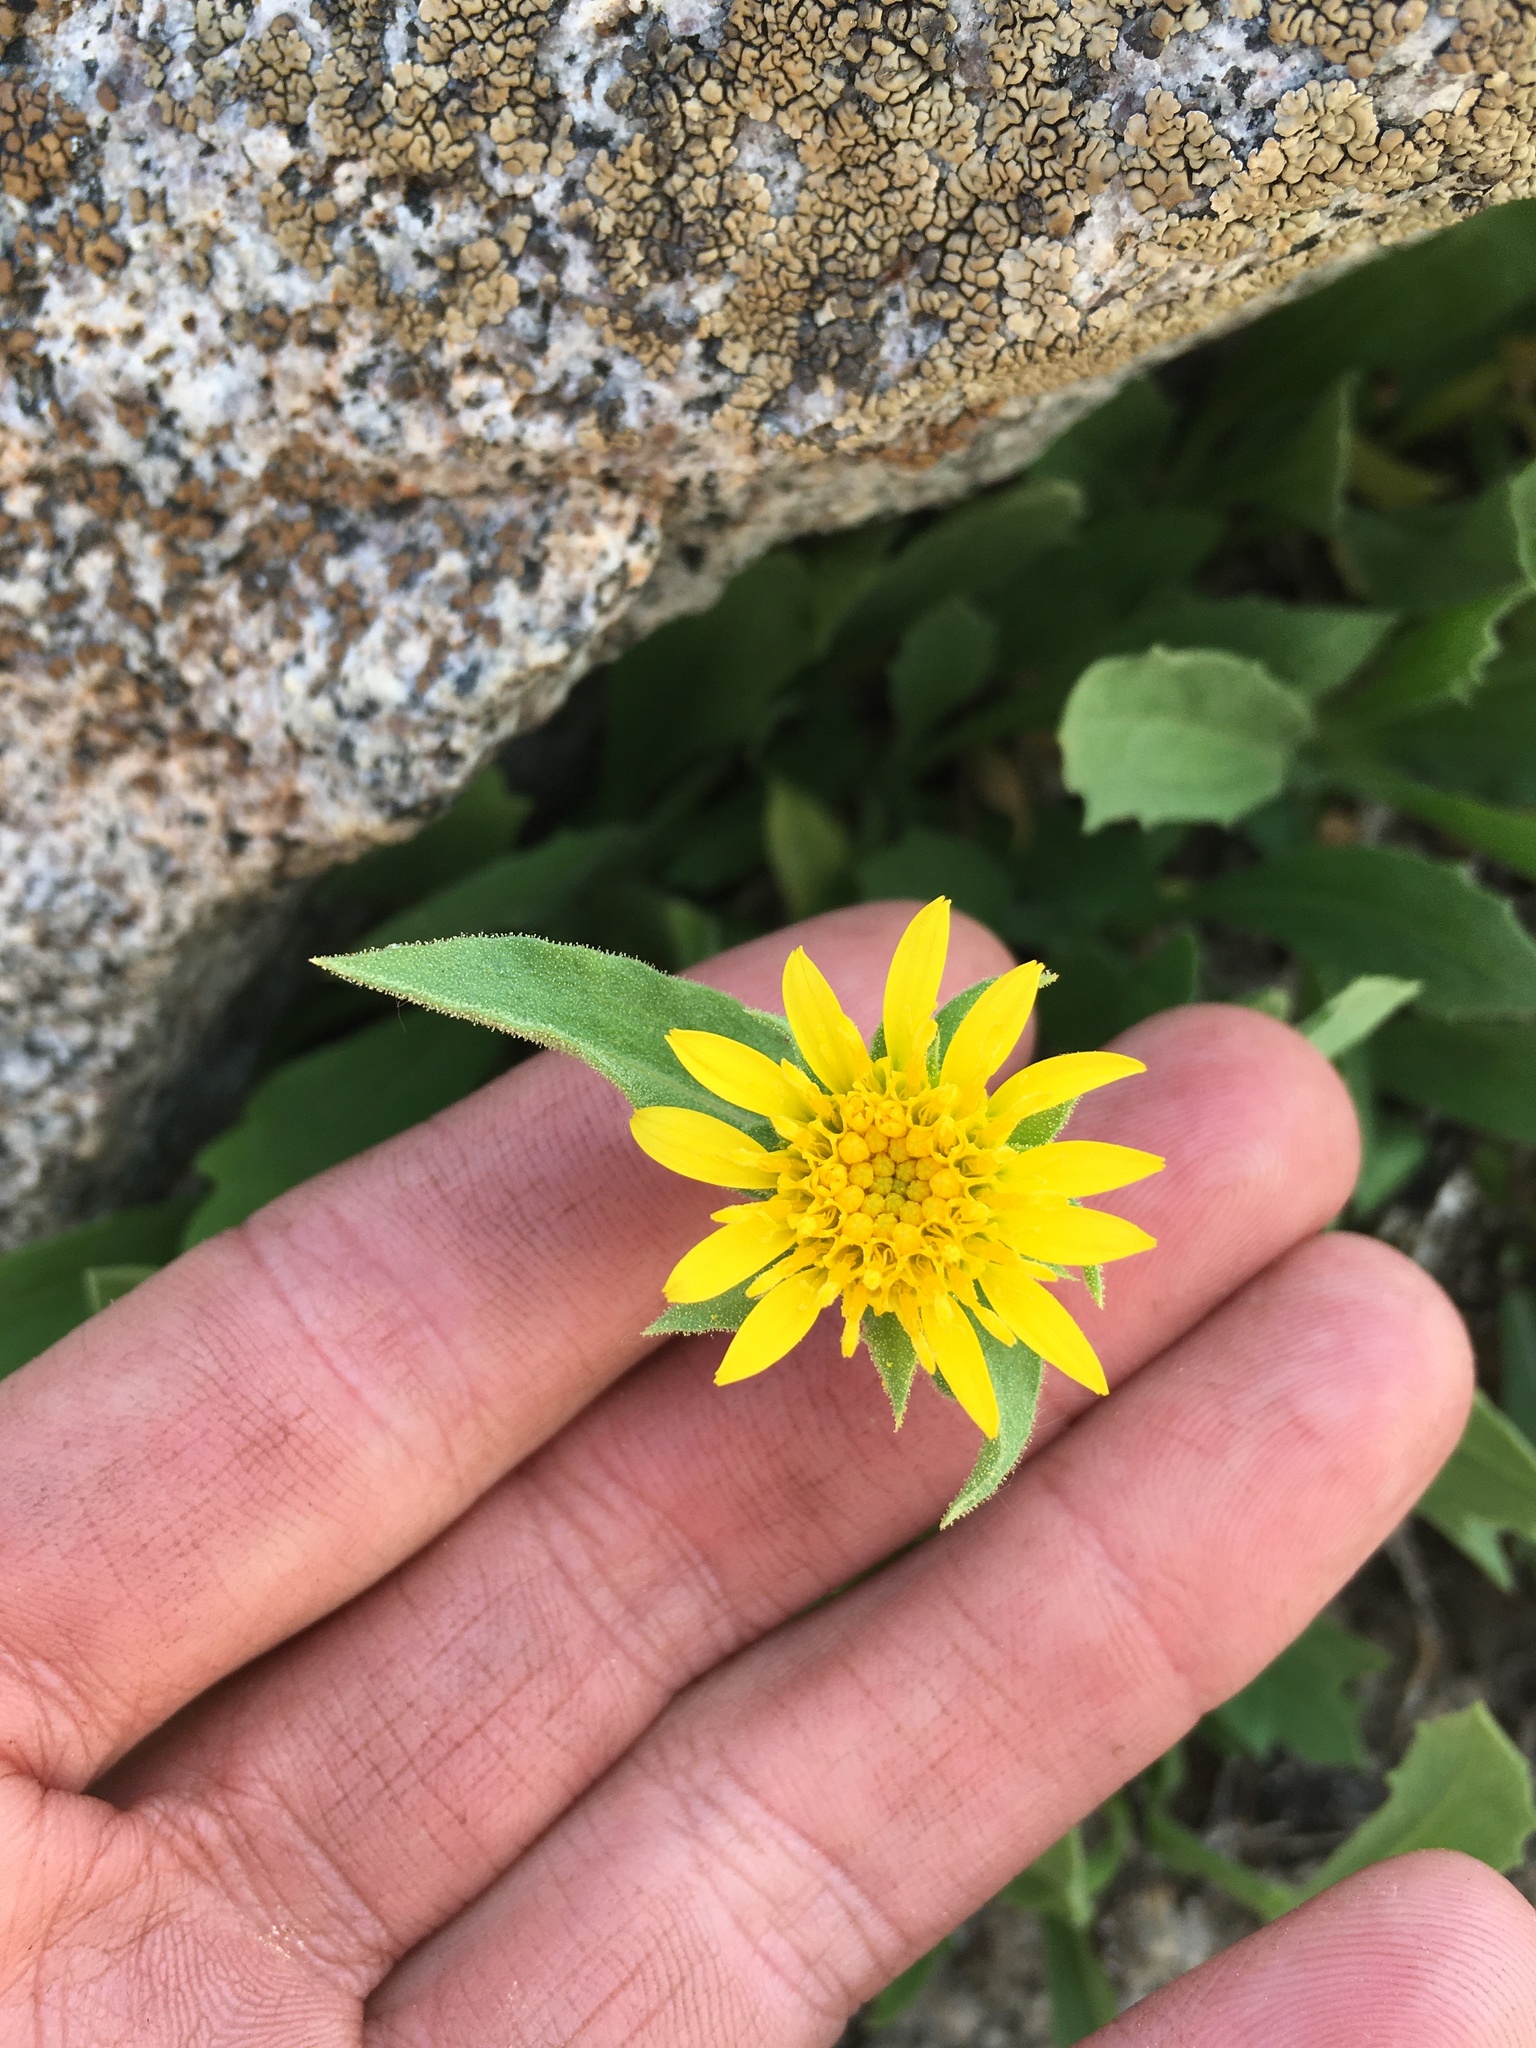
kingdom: Plantae
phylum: Tracheophyta
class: Magnoliopsida
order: Asterales
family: Asteraceae
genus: Toiyabea
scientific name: Toiyabea peirsonii
